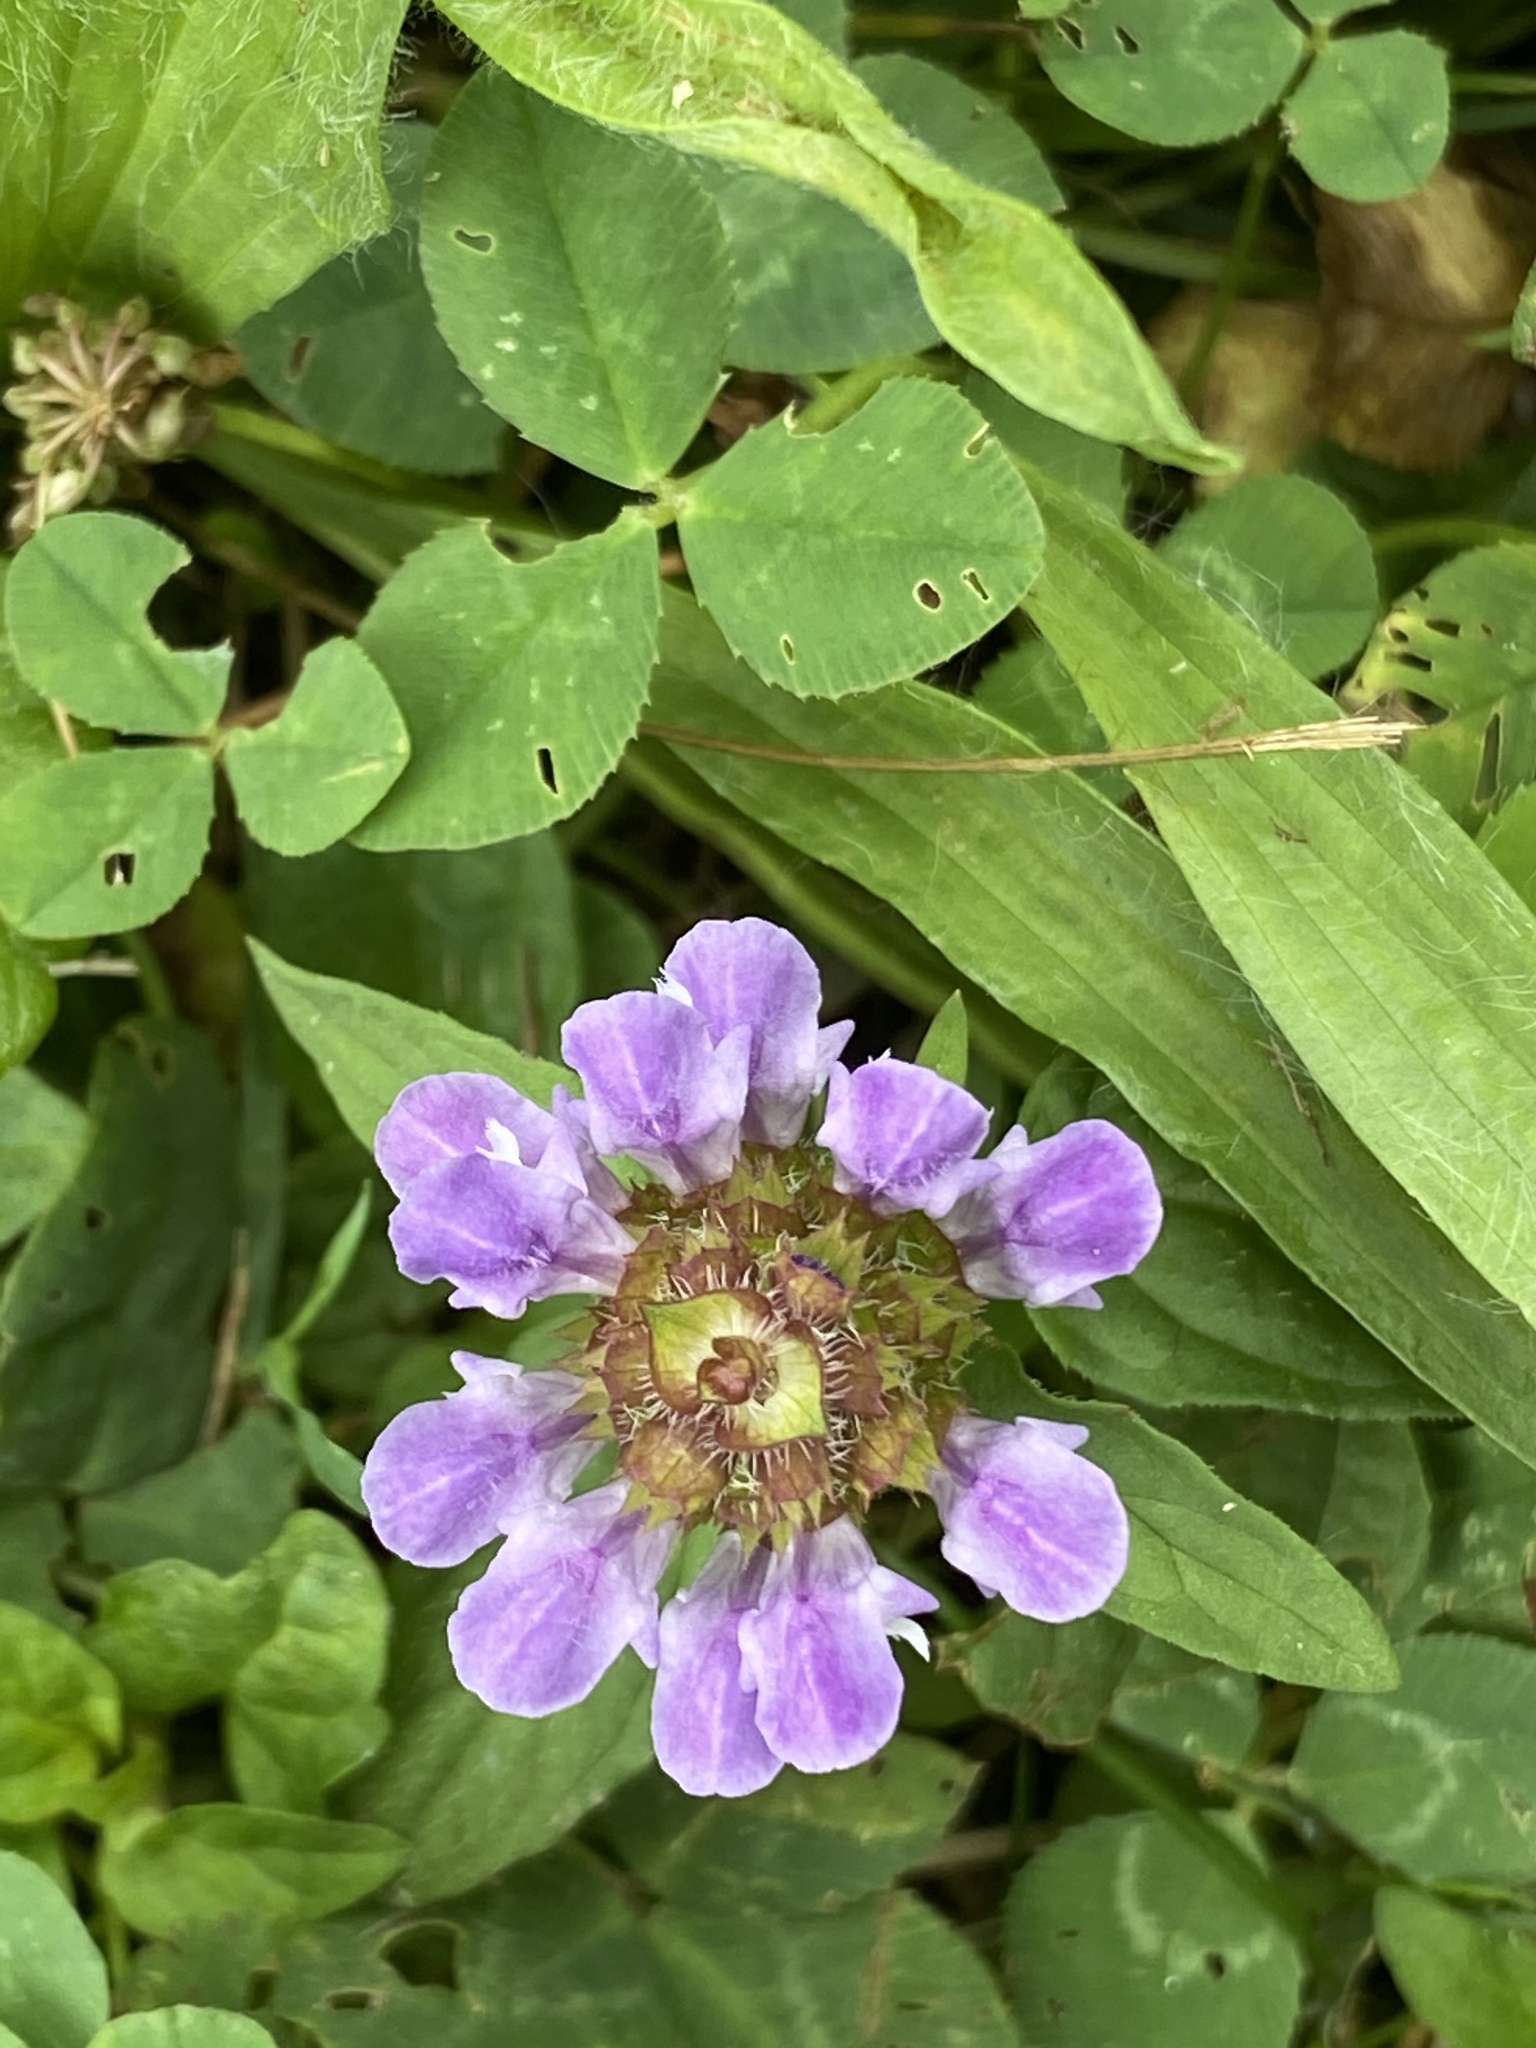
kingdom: Plantae
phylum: Tracheophyta
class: Magnoliopsida
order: Lamiales
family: Lamiaceae
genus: Prunella
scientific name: Prunella vulgaris
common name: Heal-all
